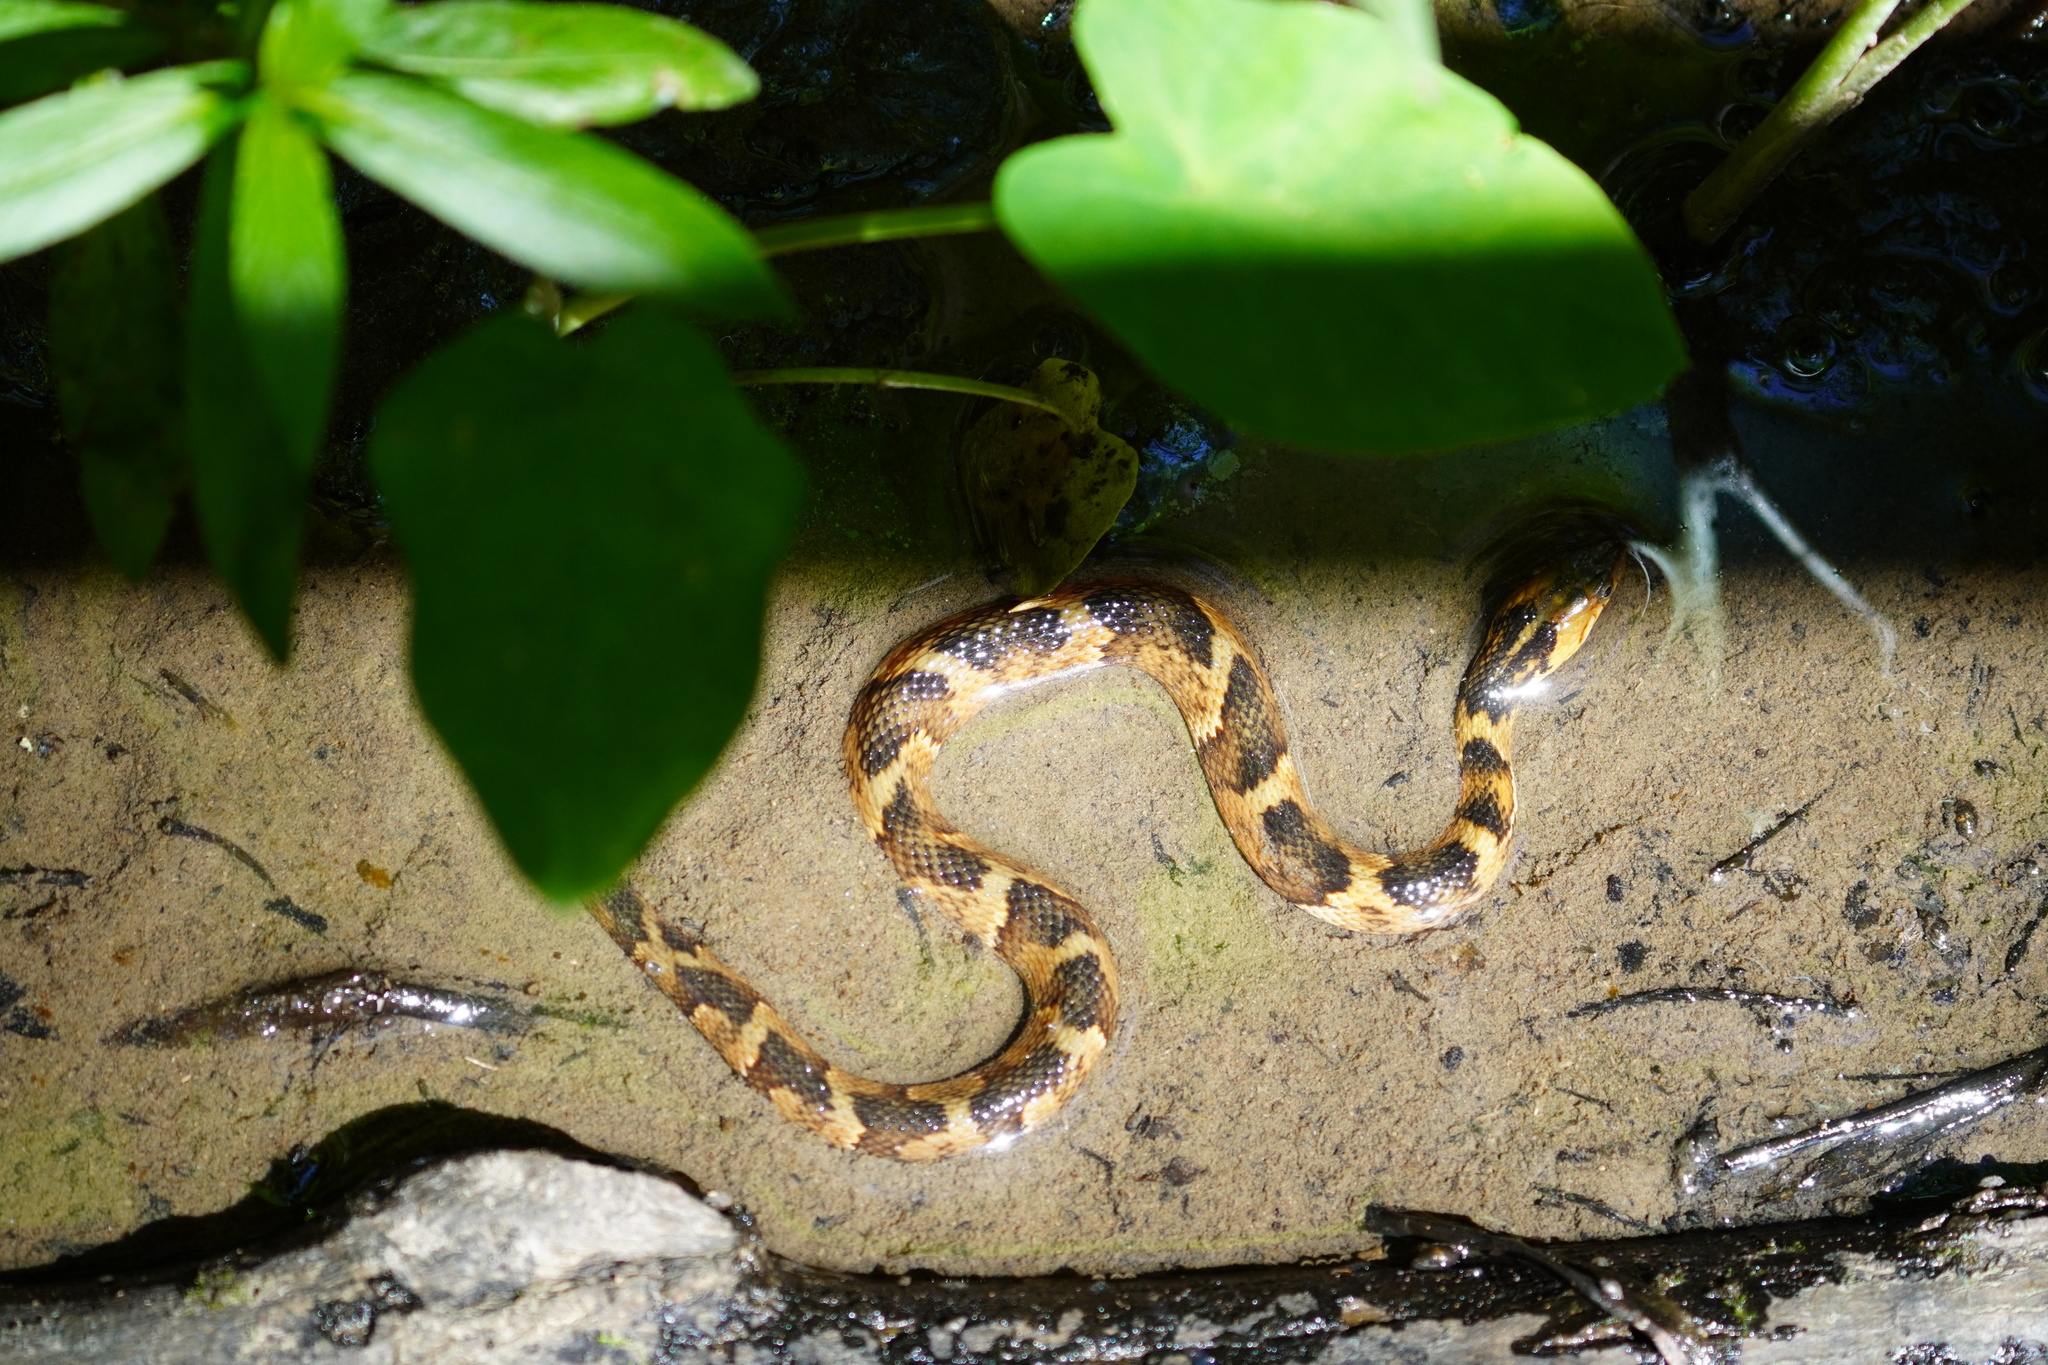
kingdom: Animalia
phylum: Chordata
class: Squamata
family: Colubridae
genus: Nerodia
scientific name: Nerodia fasciata
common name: Southern water snake
